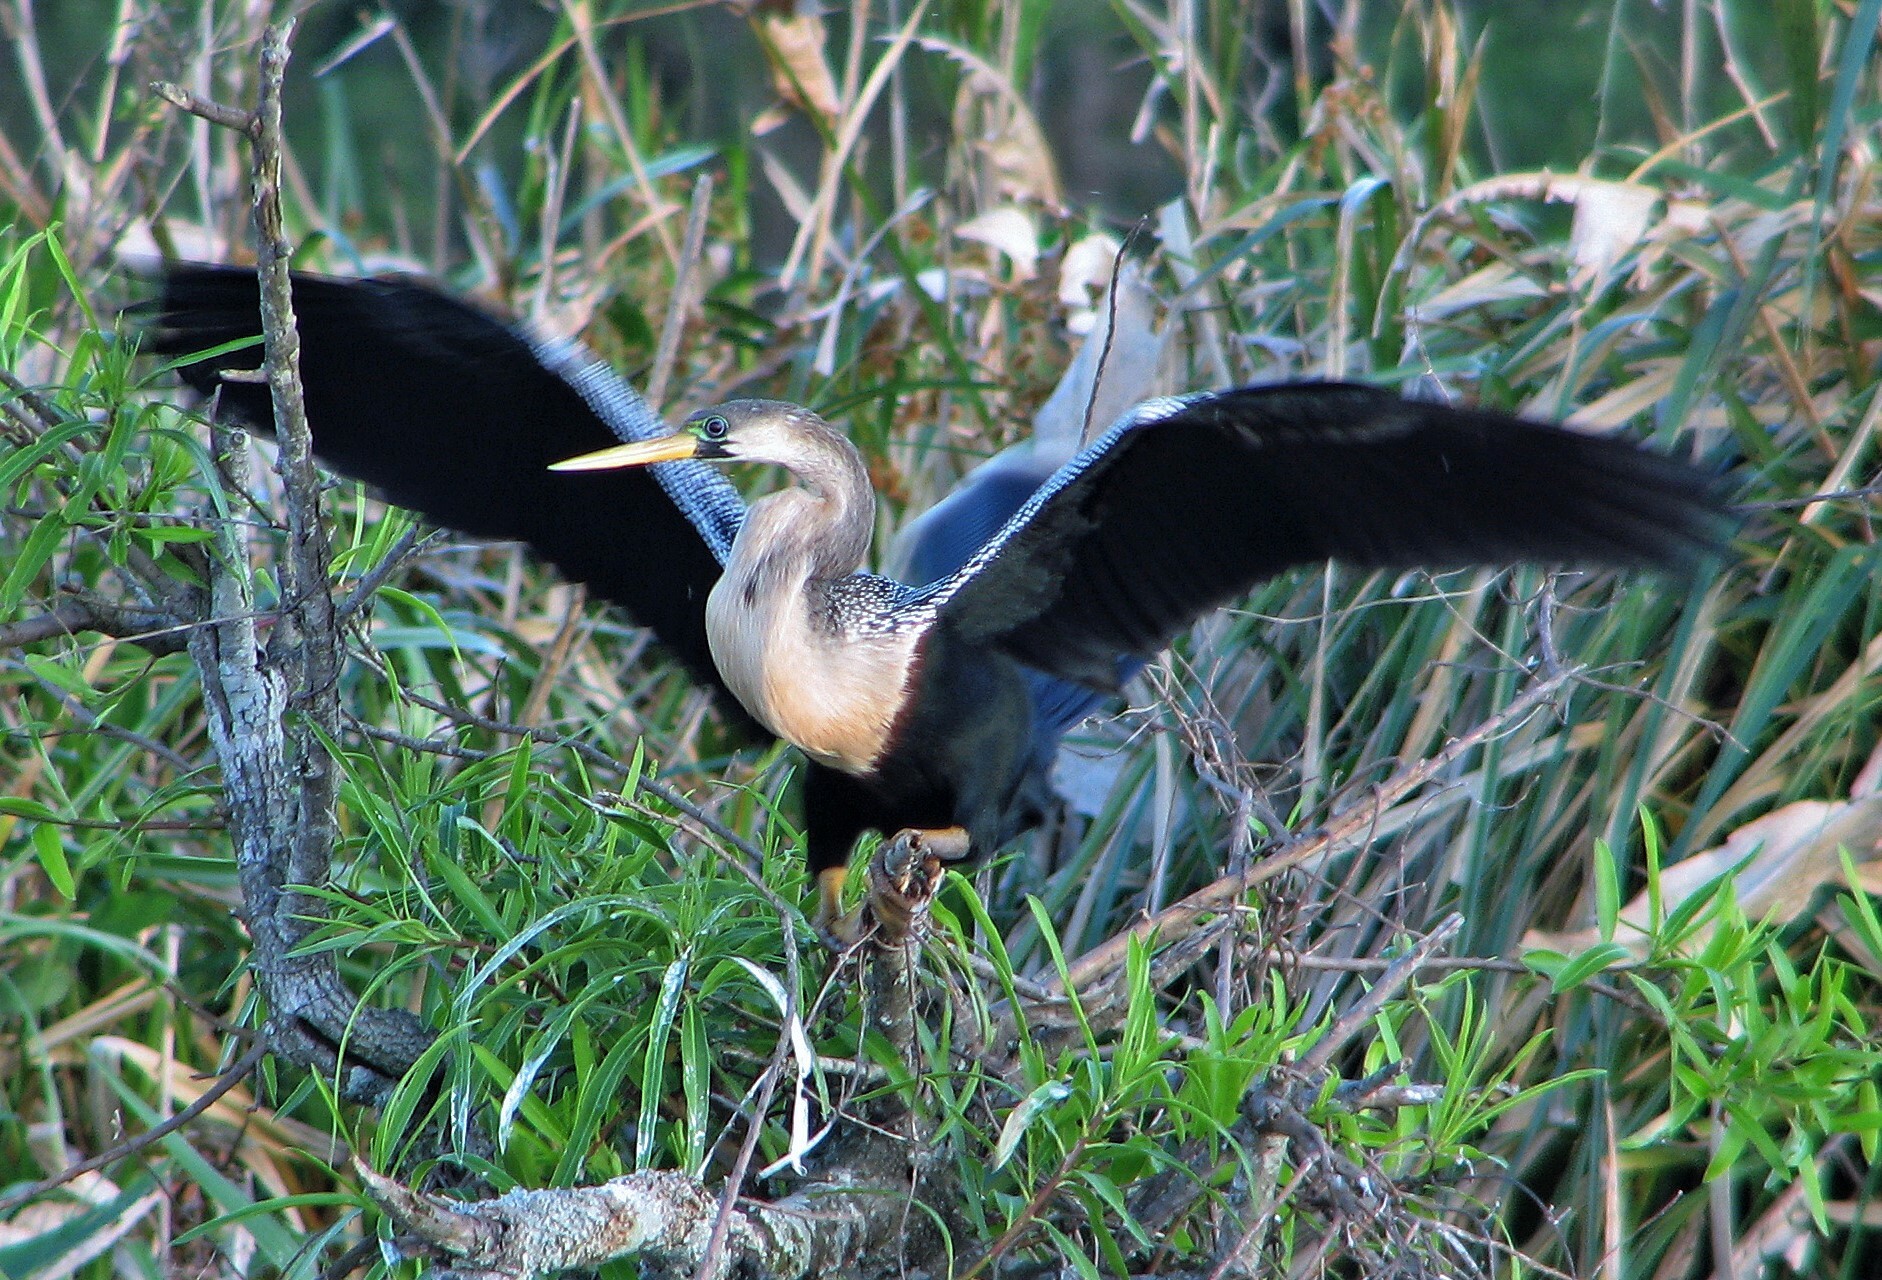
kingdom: Animalia
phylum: Chordata
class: Aves
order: Suliformes
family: Anhingidae
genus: Anhinga
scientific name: Anhinga anhinga
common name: Anhinga
